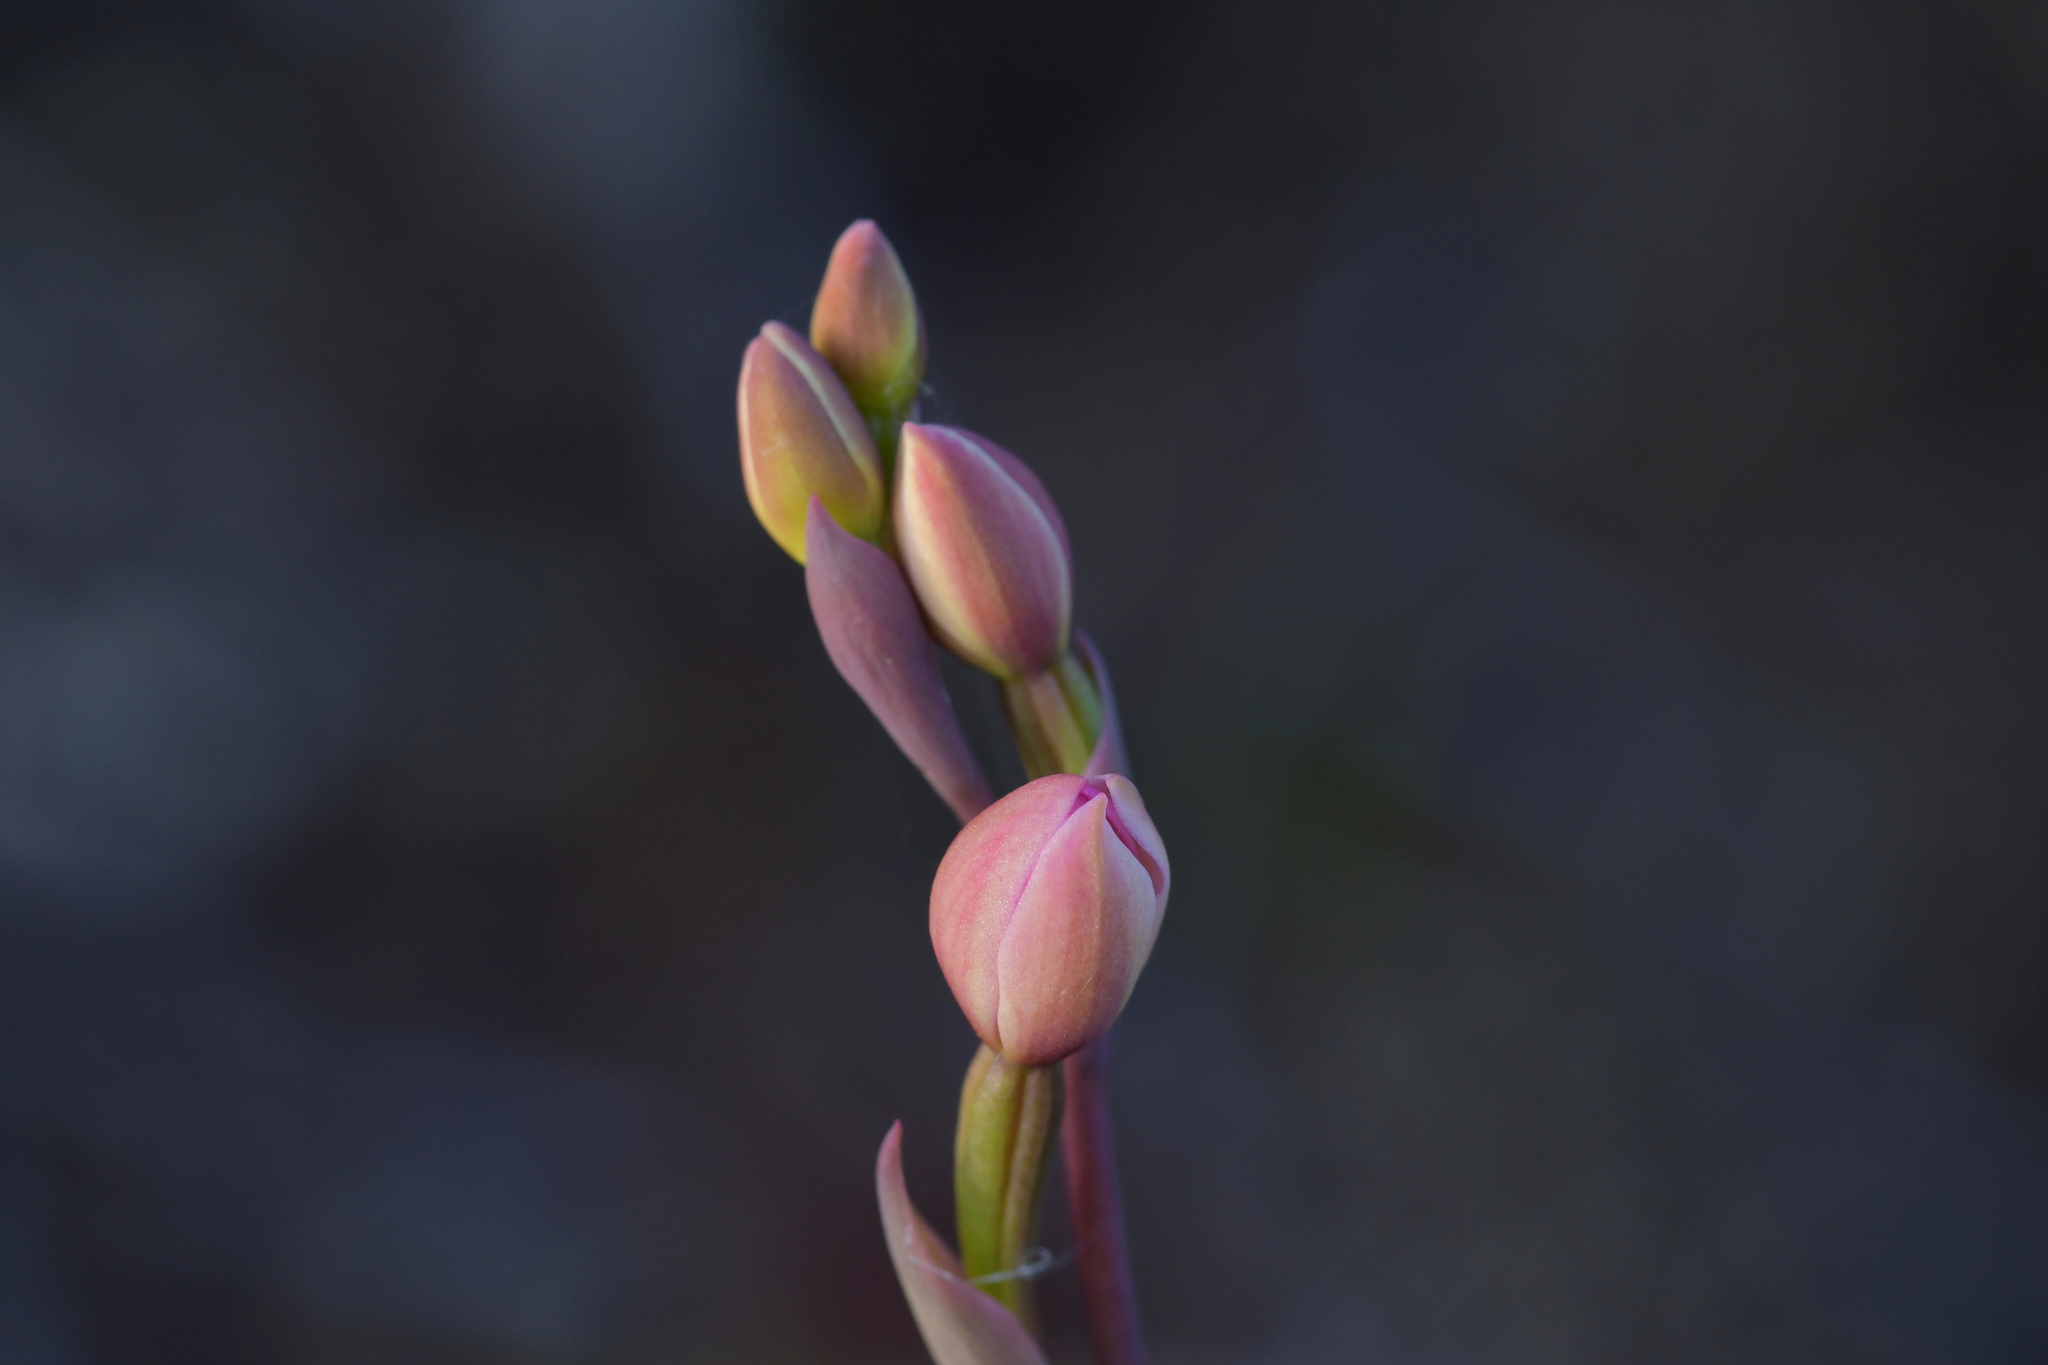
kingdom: Plantae
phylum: Tracheophyta
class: Liliopsida
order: Asparagales
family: Orchidaceae
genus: Thelymitra
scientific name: Thelymitra carnea
